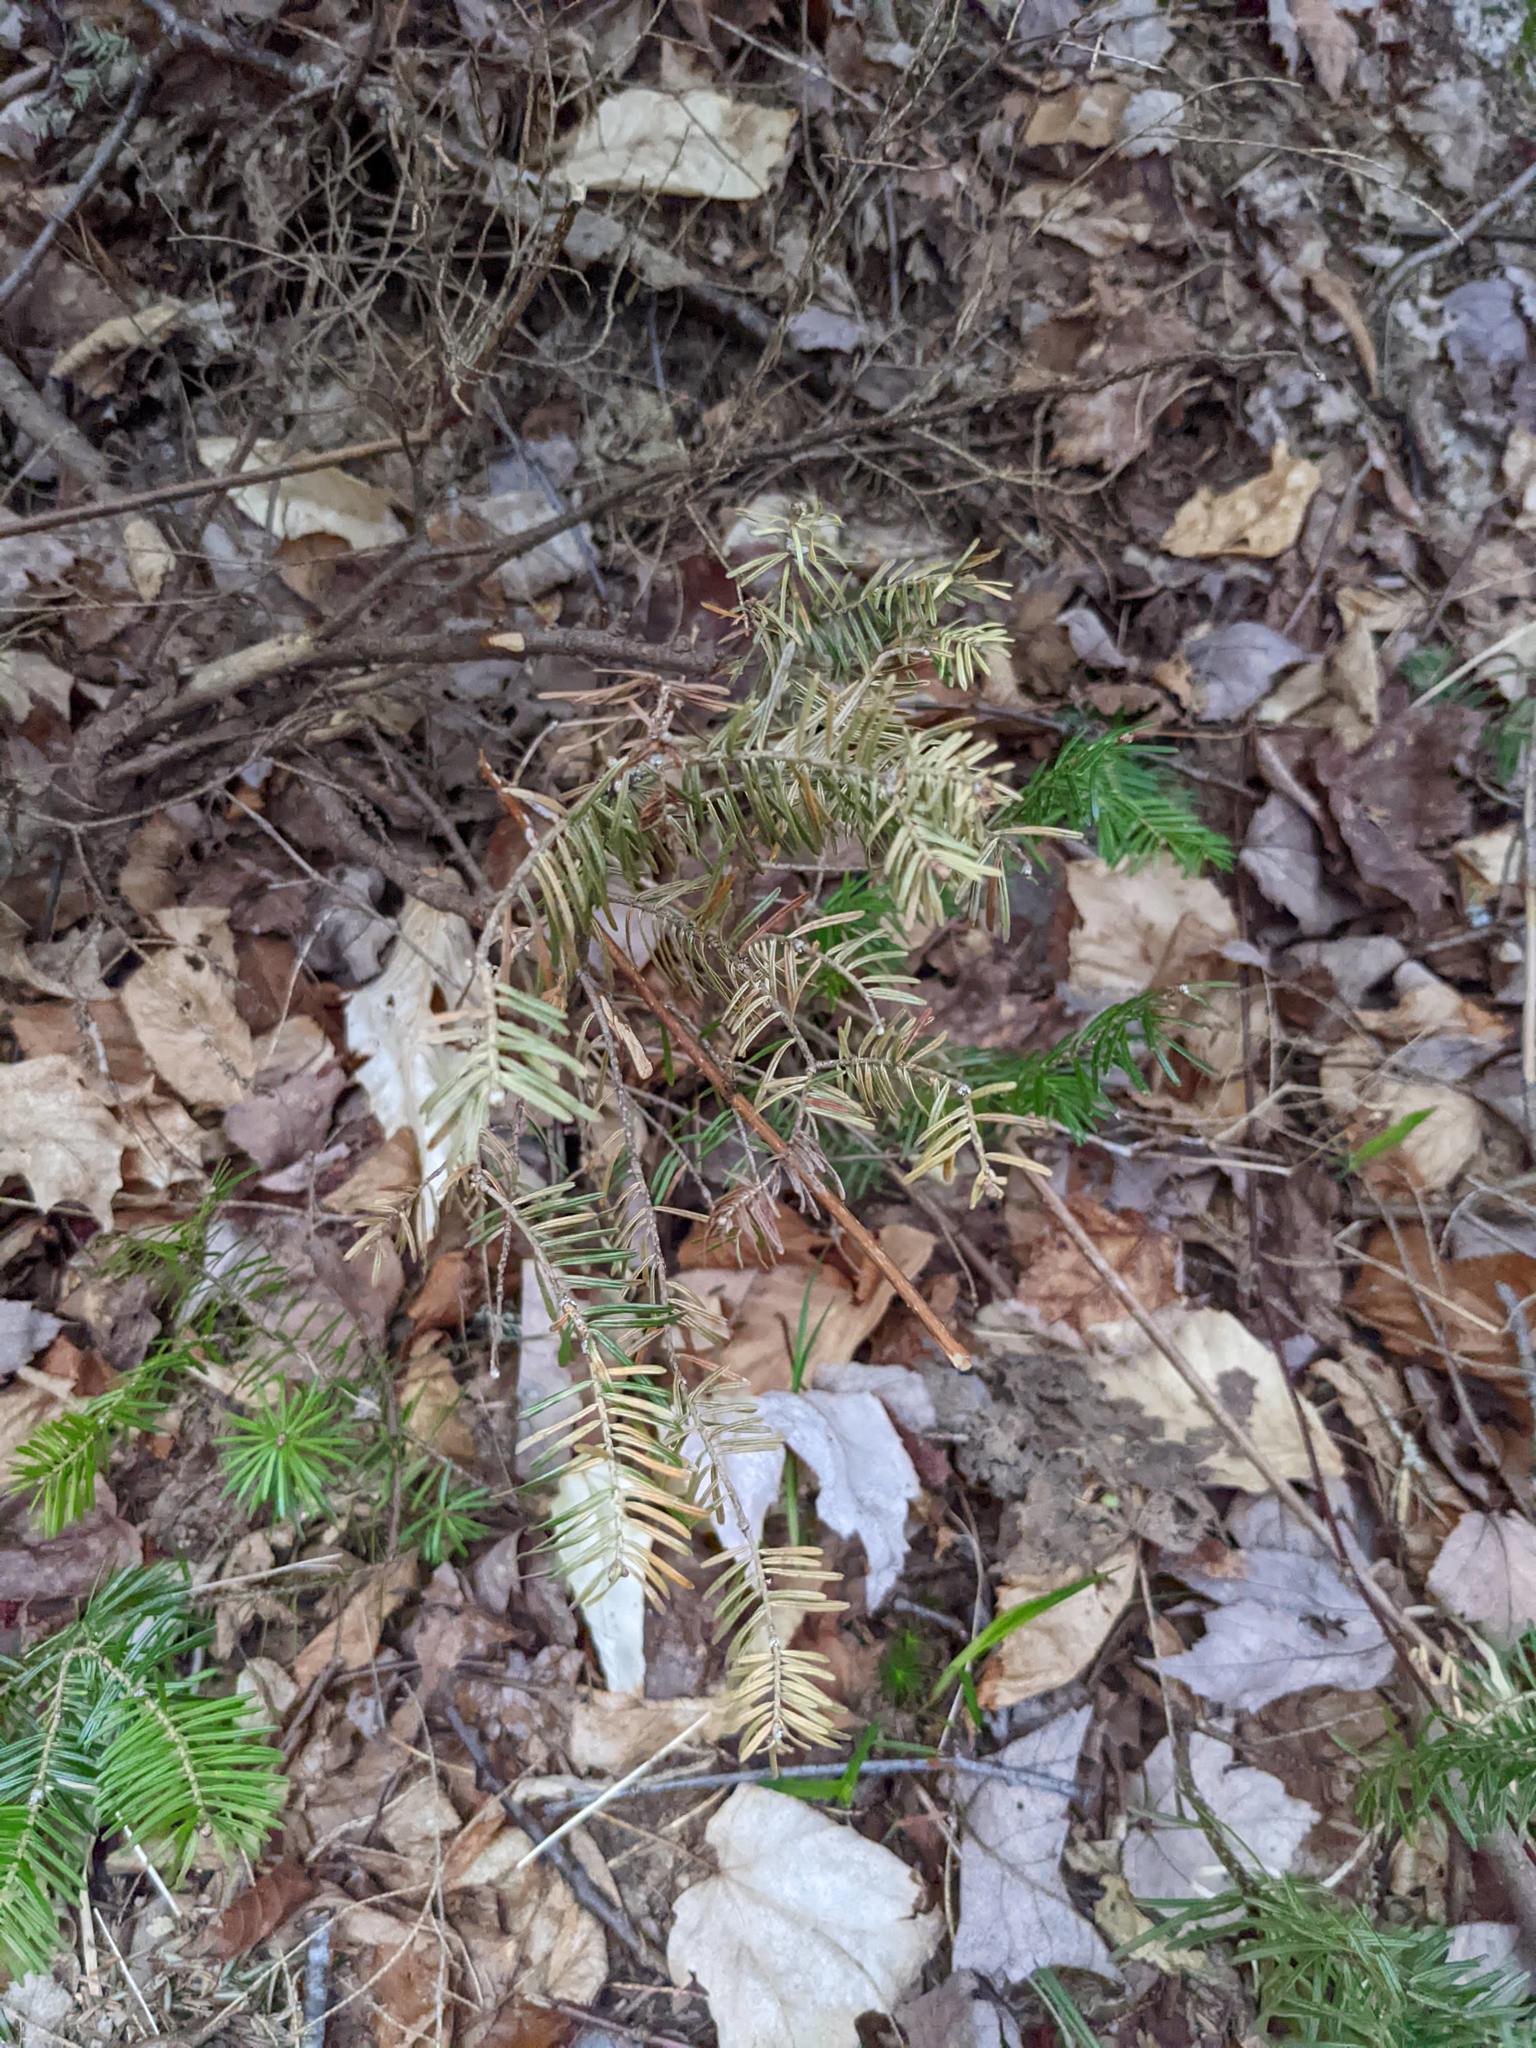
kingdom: Plantae
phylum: Tracheophyta
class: Pinopsida
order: Pinales
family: Pinaceae
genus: Abies
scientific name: Abies balsamea
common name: Balsam fir
